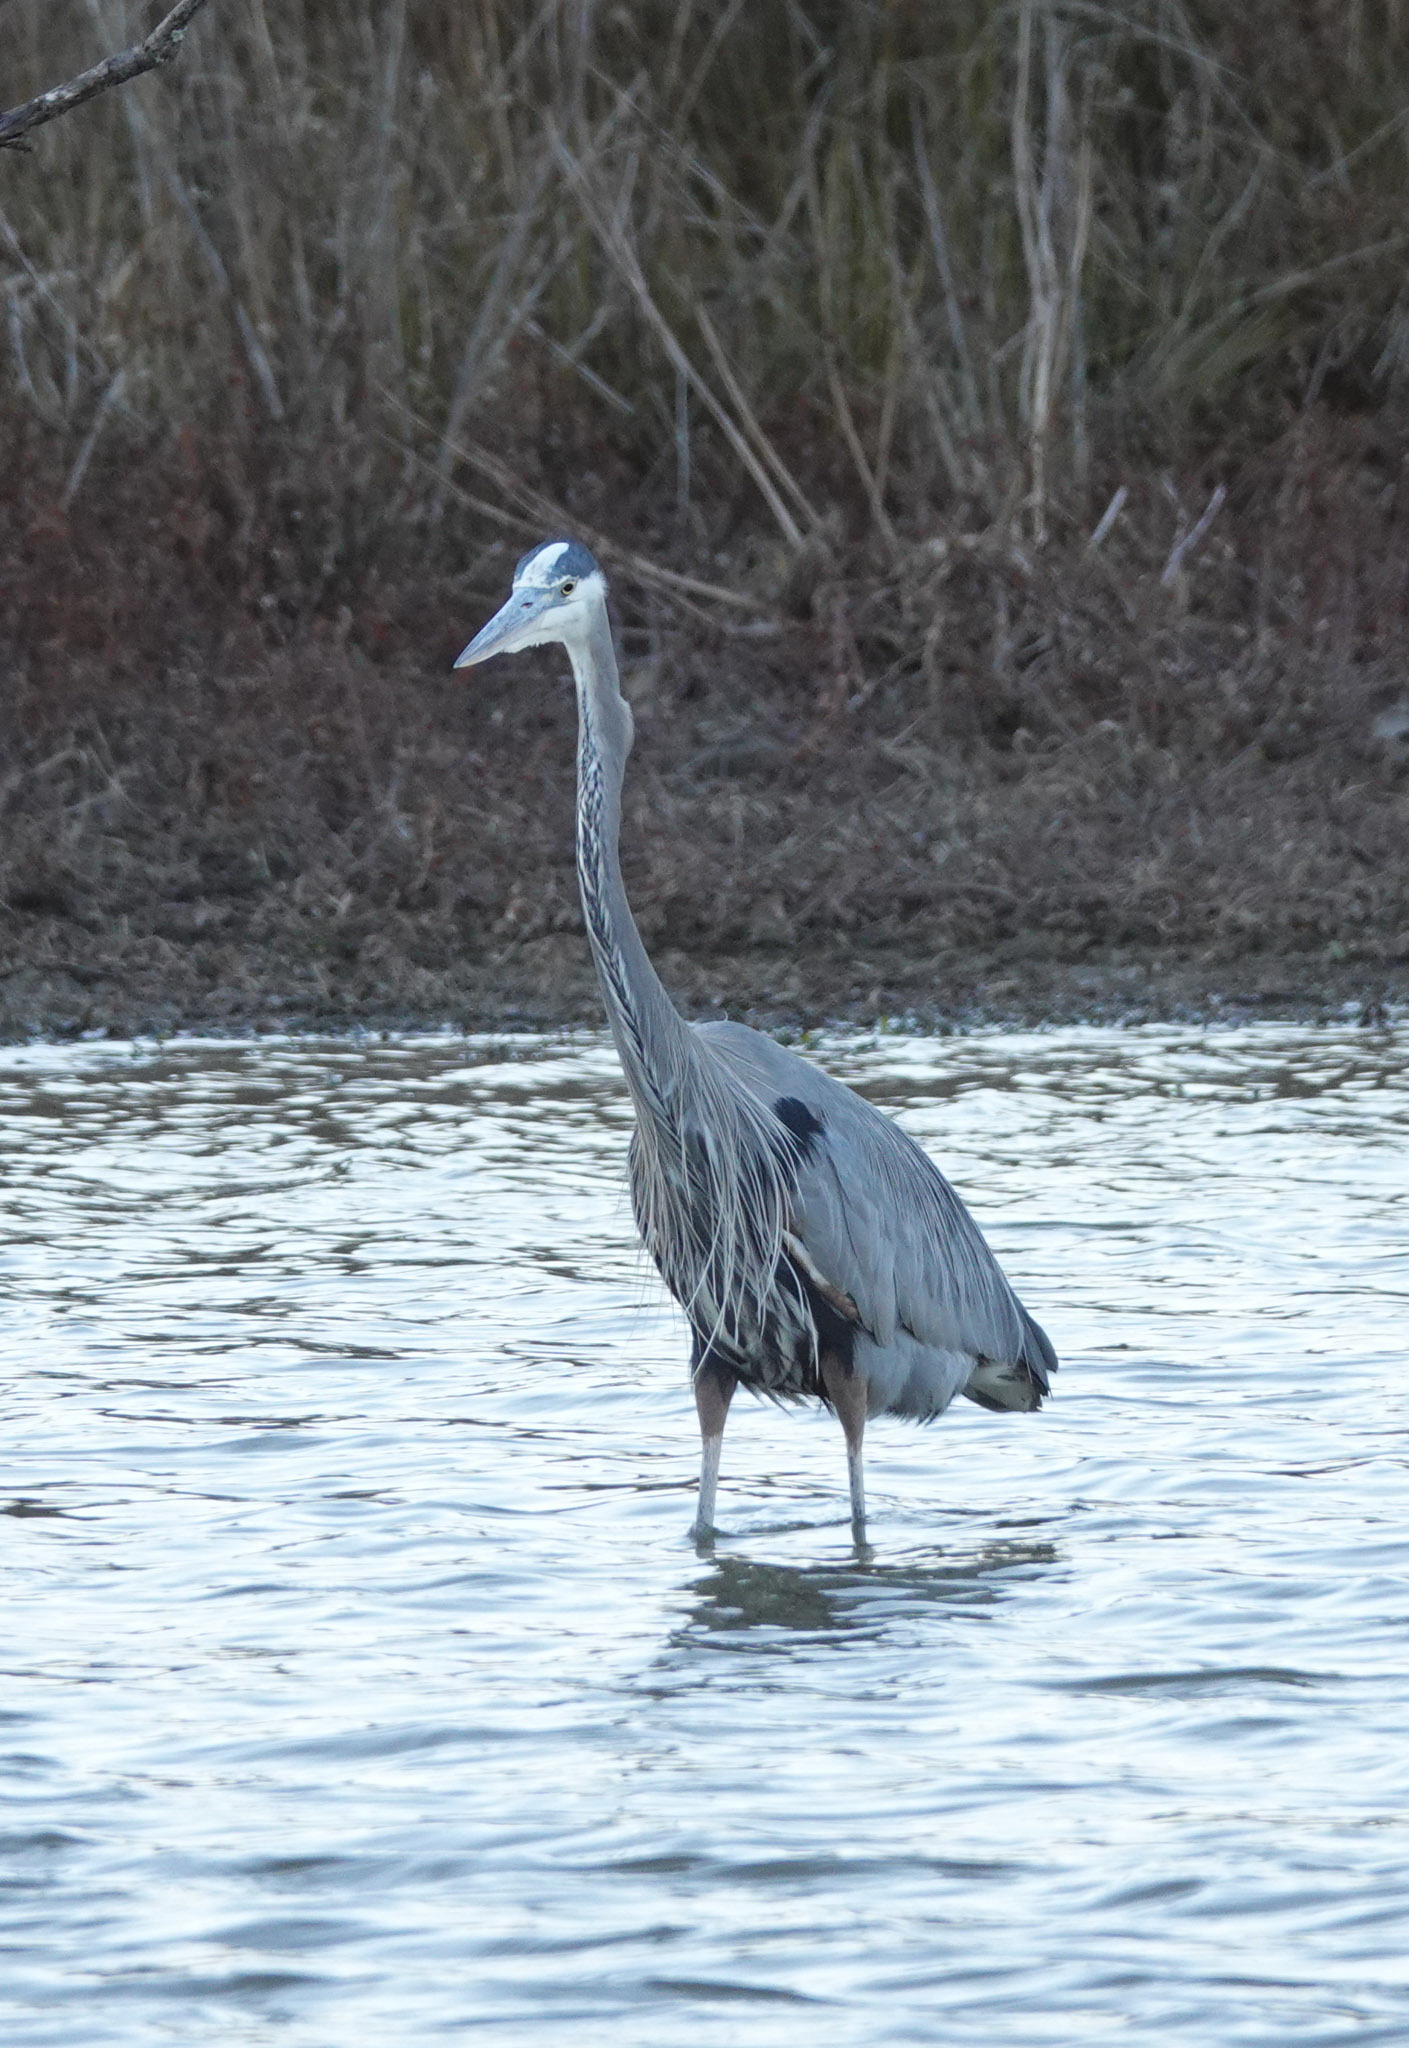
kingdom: Animalia
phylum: Chordata
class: Aves
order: Pelecaniformes
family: Ardeidae
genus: Ardea
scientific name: Ardea herodias
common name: Great blue heron
